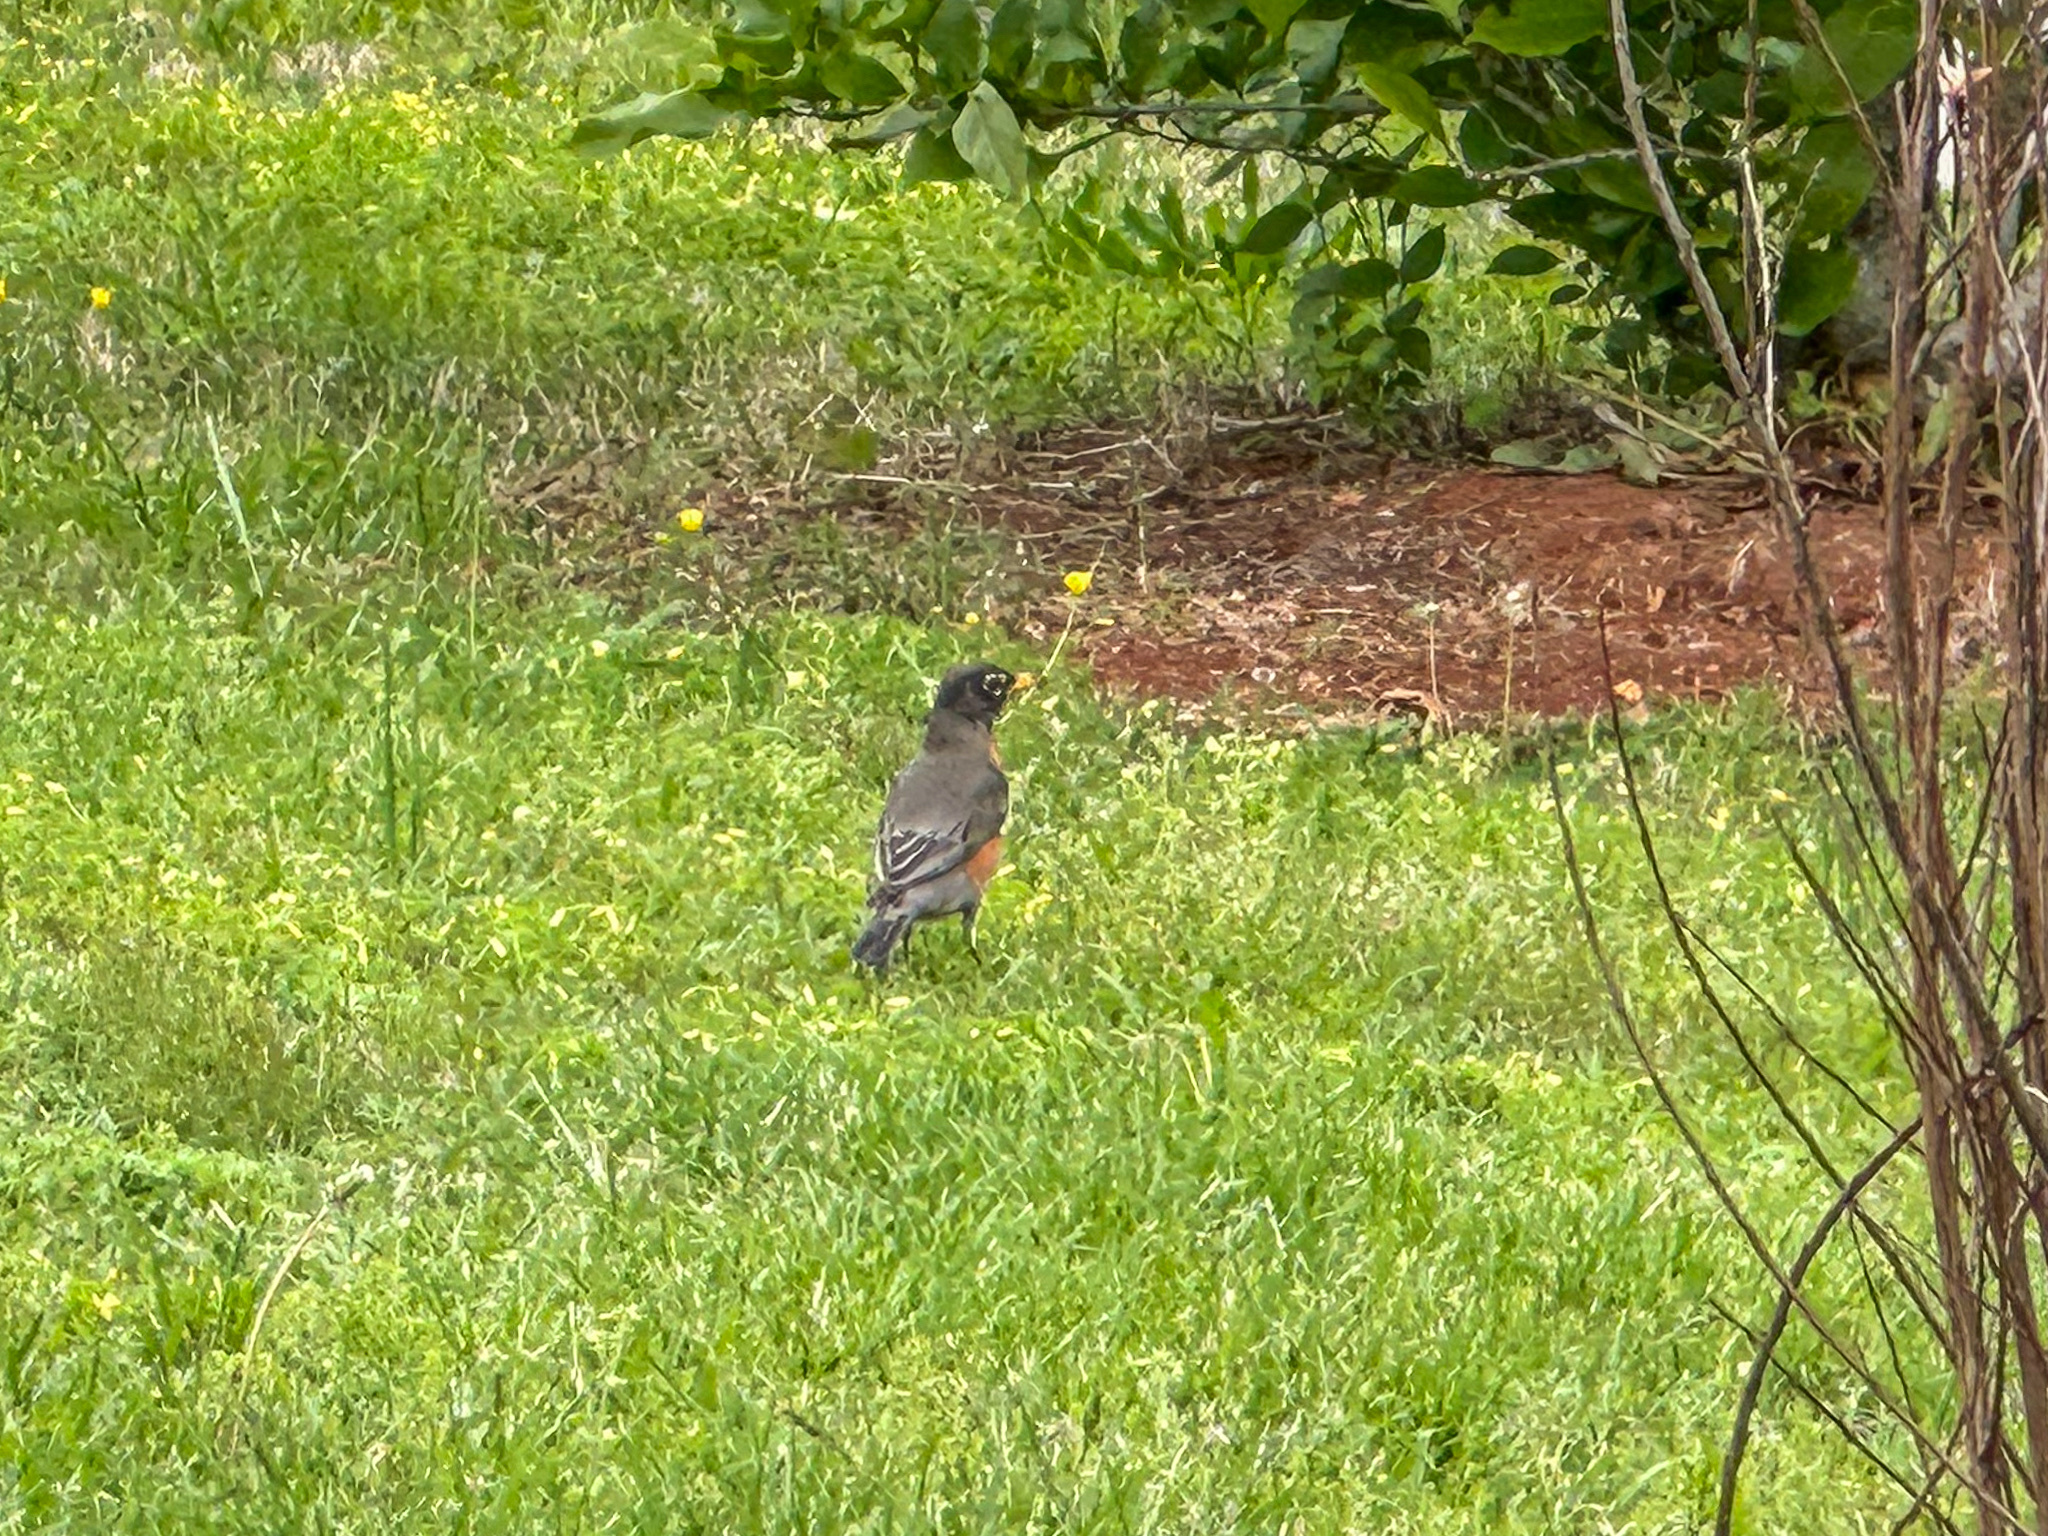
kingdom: Animalia
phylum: Chordata
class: Aves
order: Passeriformes
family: Turdidae
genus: Turdus
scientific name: Turdus migratorius
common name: American robin
